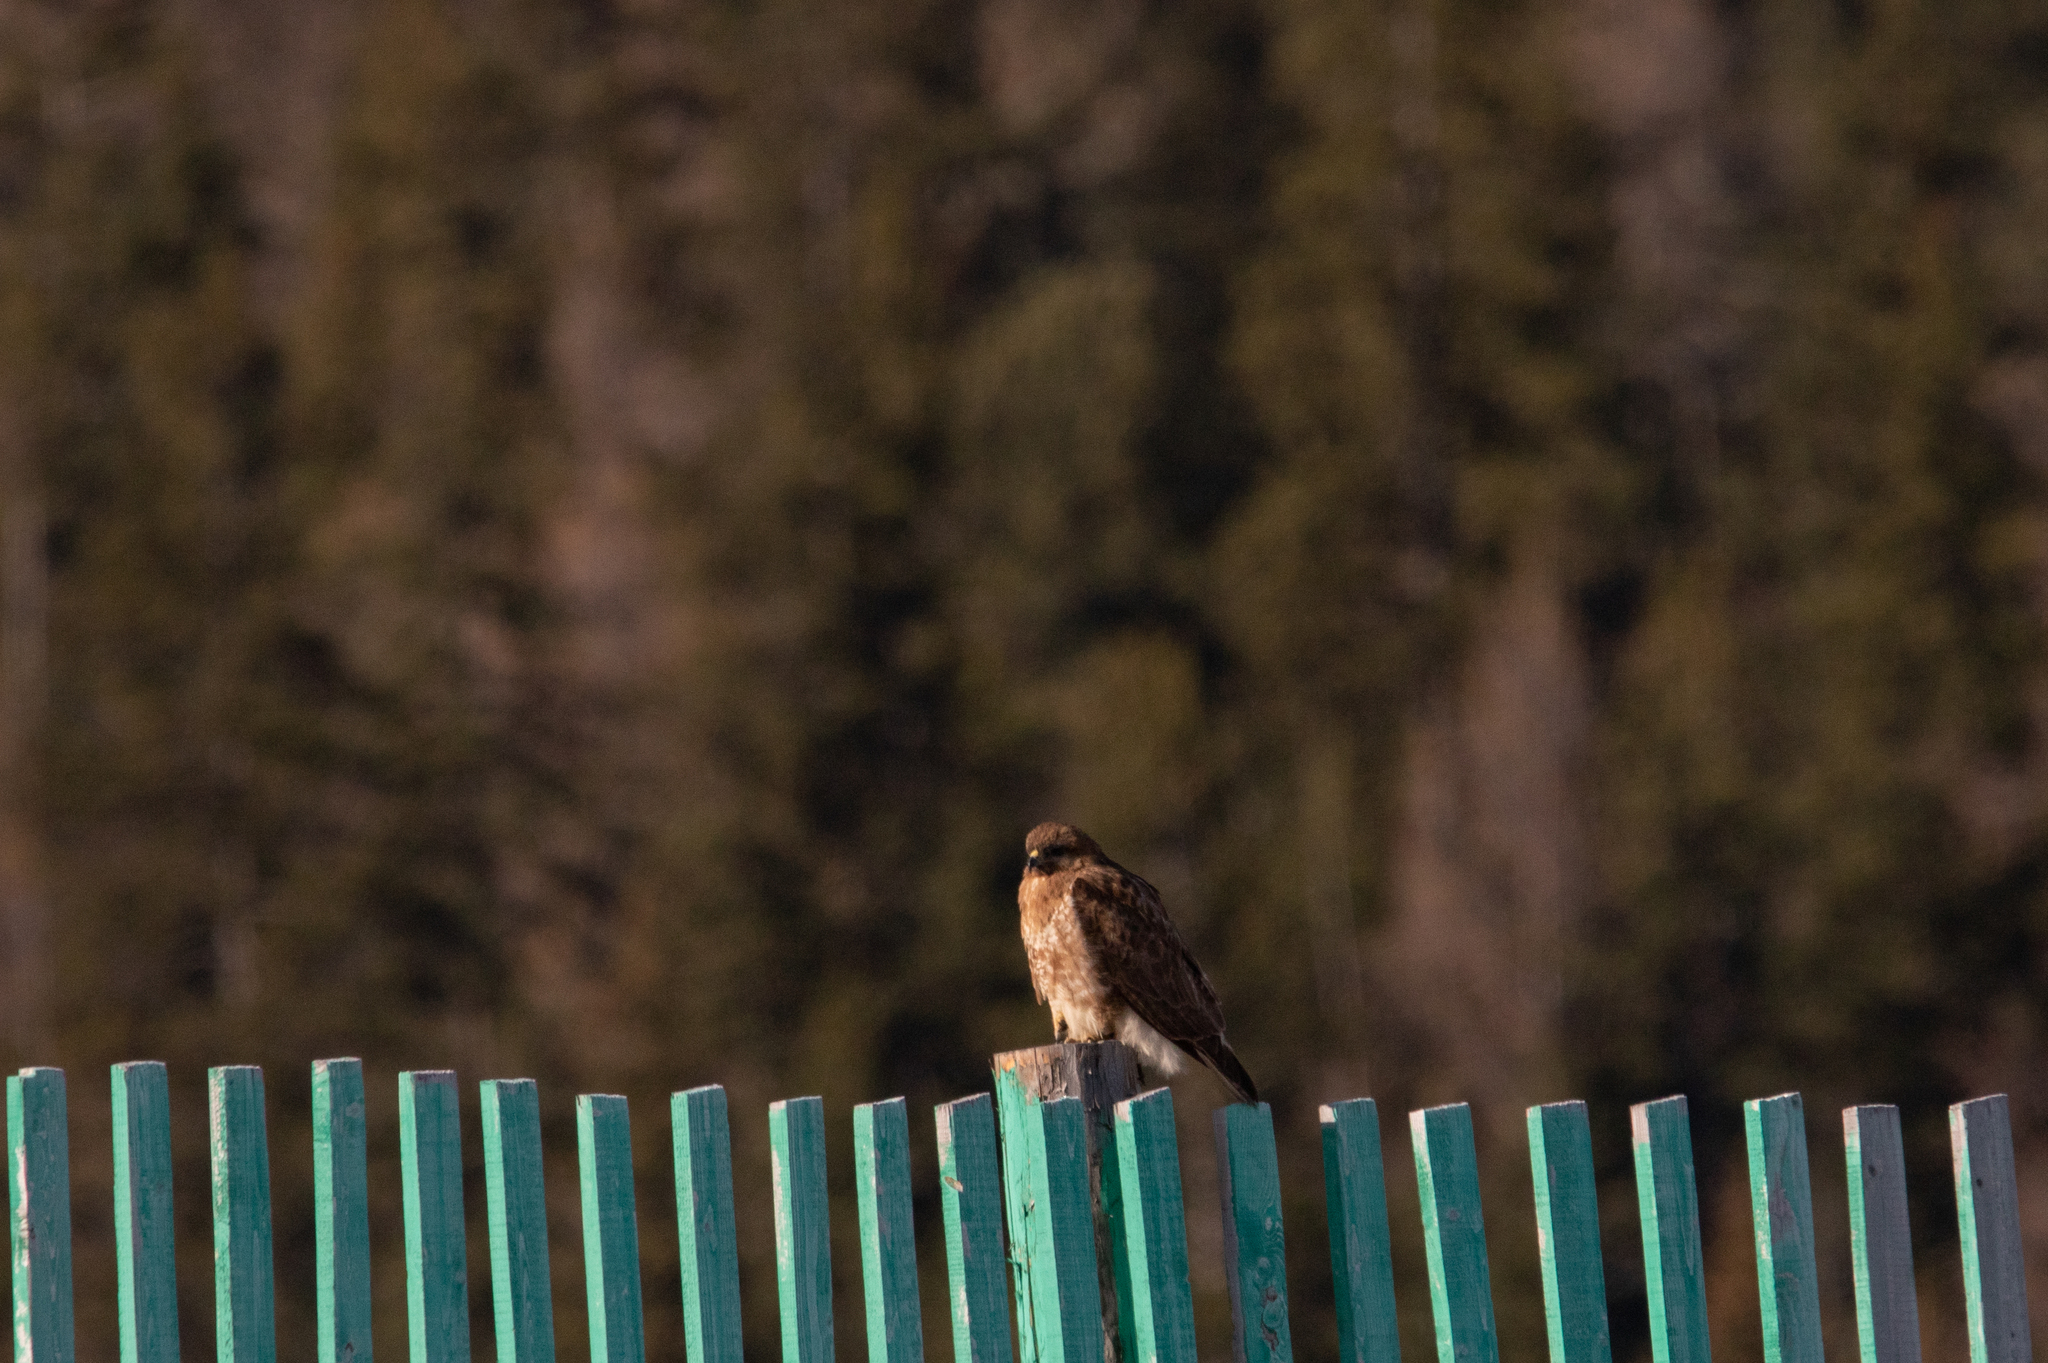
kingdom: Animalia
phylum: Chordata
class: Aves
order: Accipitriformes
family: Accipitridae
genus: Buteo
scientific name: Buteo japonicus
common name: Eastern buzzard
